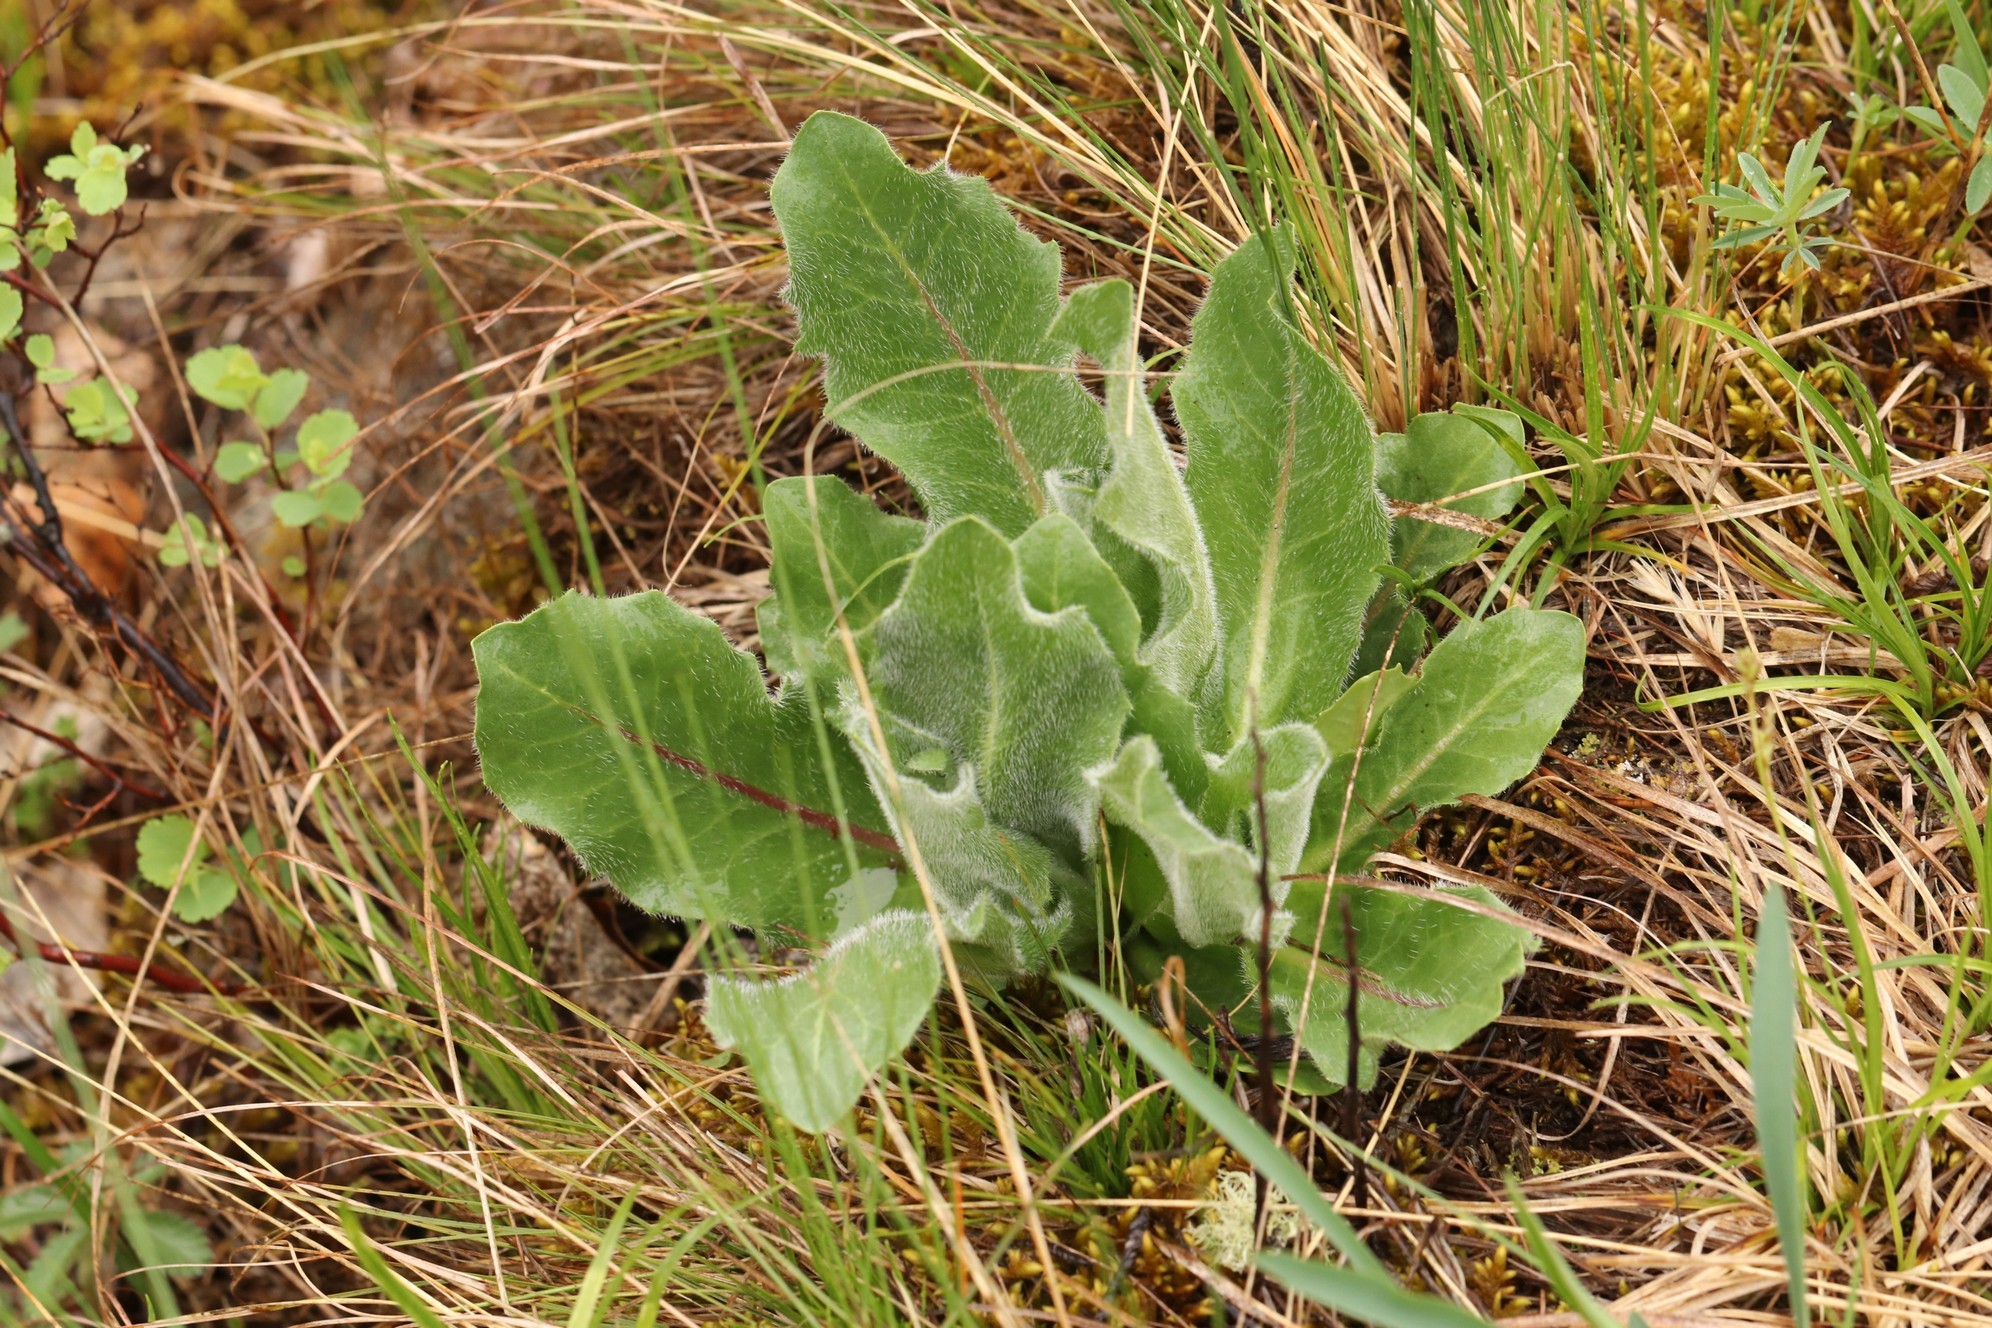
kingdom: Plantae
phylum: Tracheophyta
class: Magnoliopsida
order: Asterales
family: Asteraceae
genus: Trommsdorffia
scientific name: Trommsdorffia maculata
